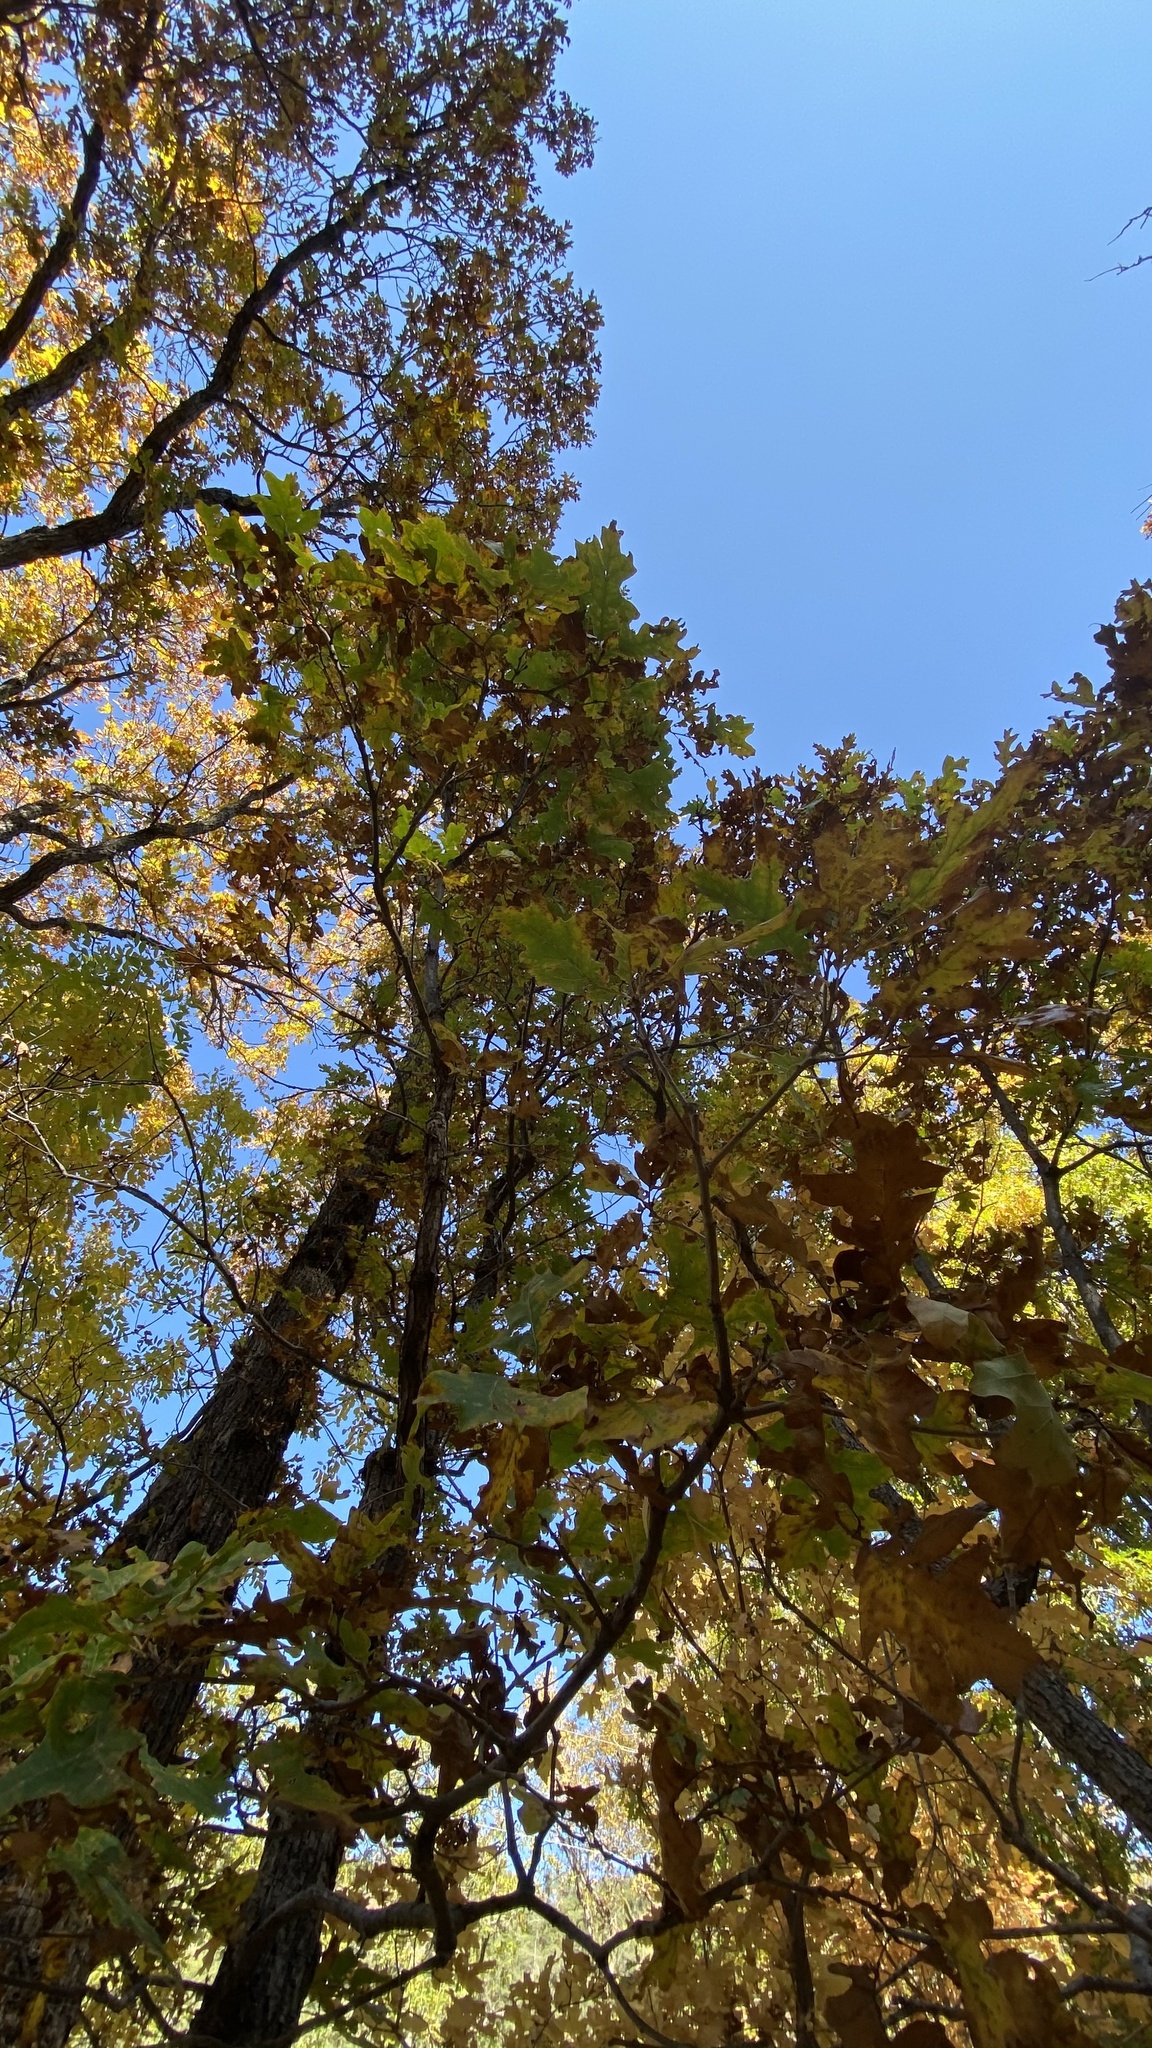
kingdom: Plantae
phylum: Tracheophyta
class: Magnoliopsida
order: Fagales
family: Fagaceae
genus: Quercus
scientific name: Quercus gambelii
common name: Gambel oak
